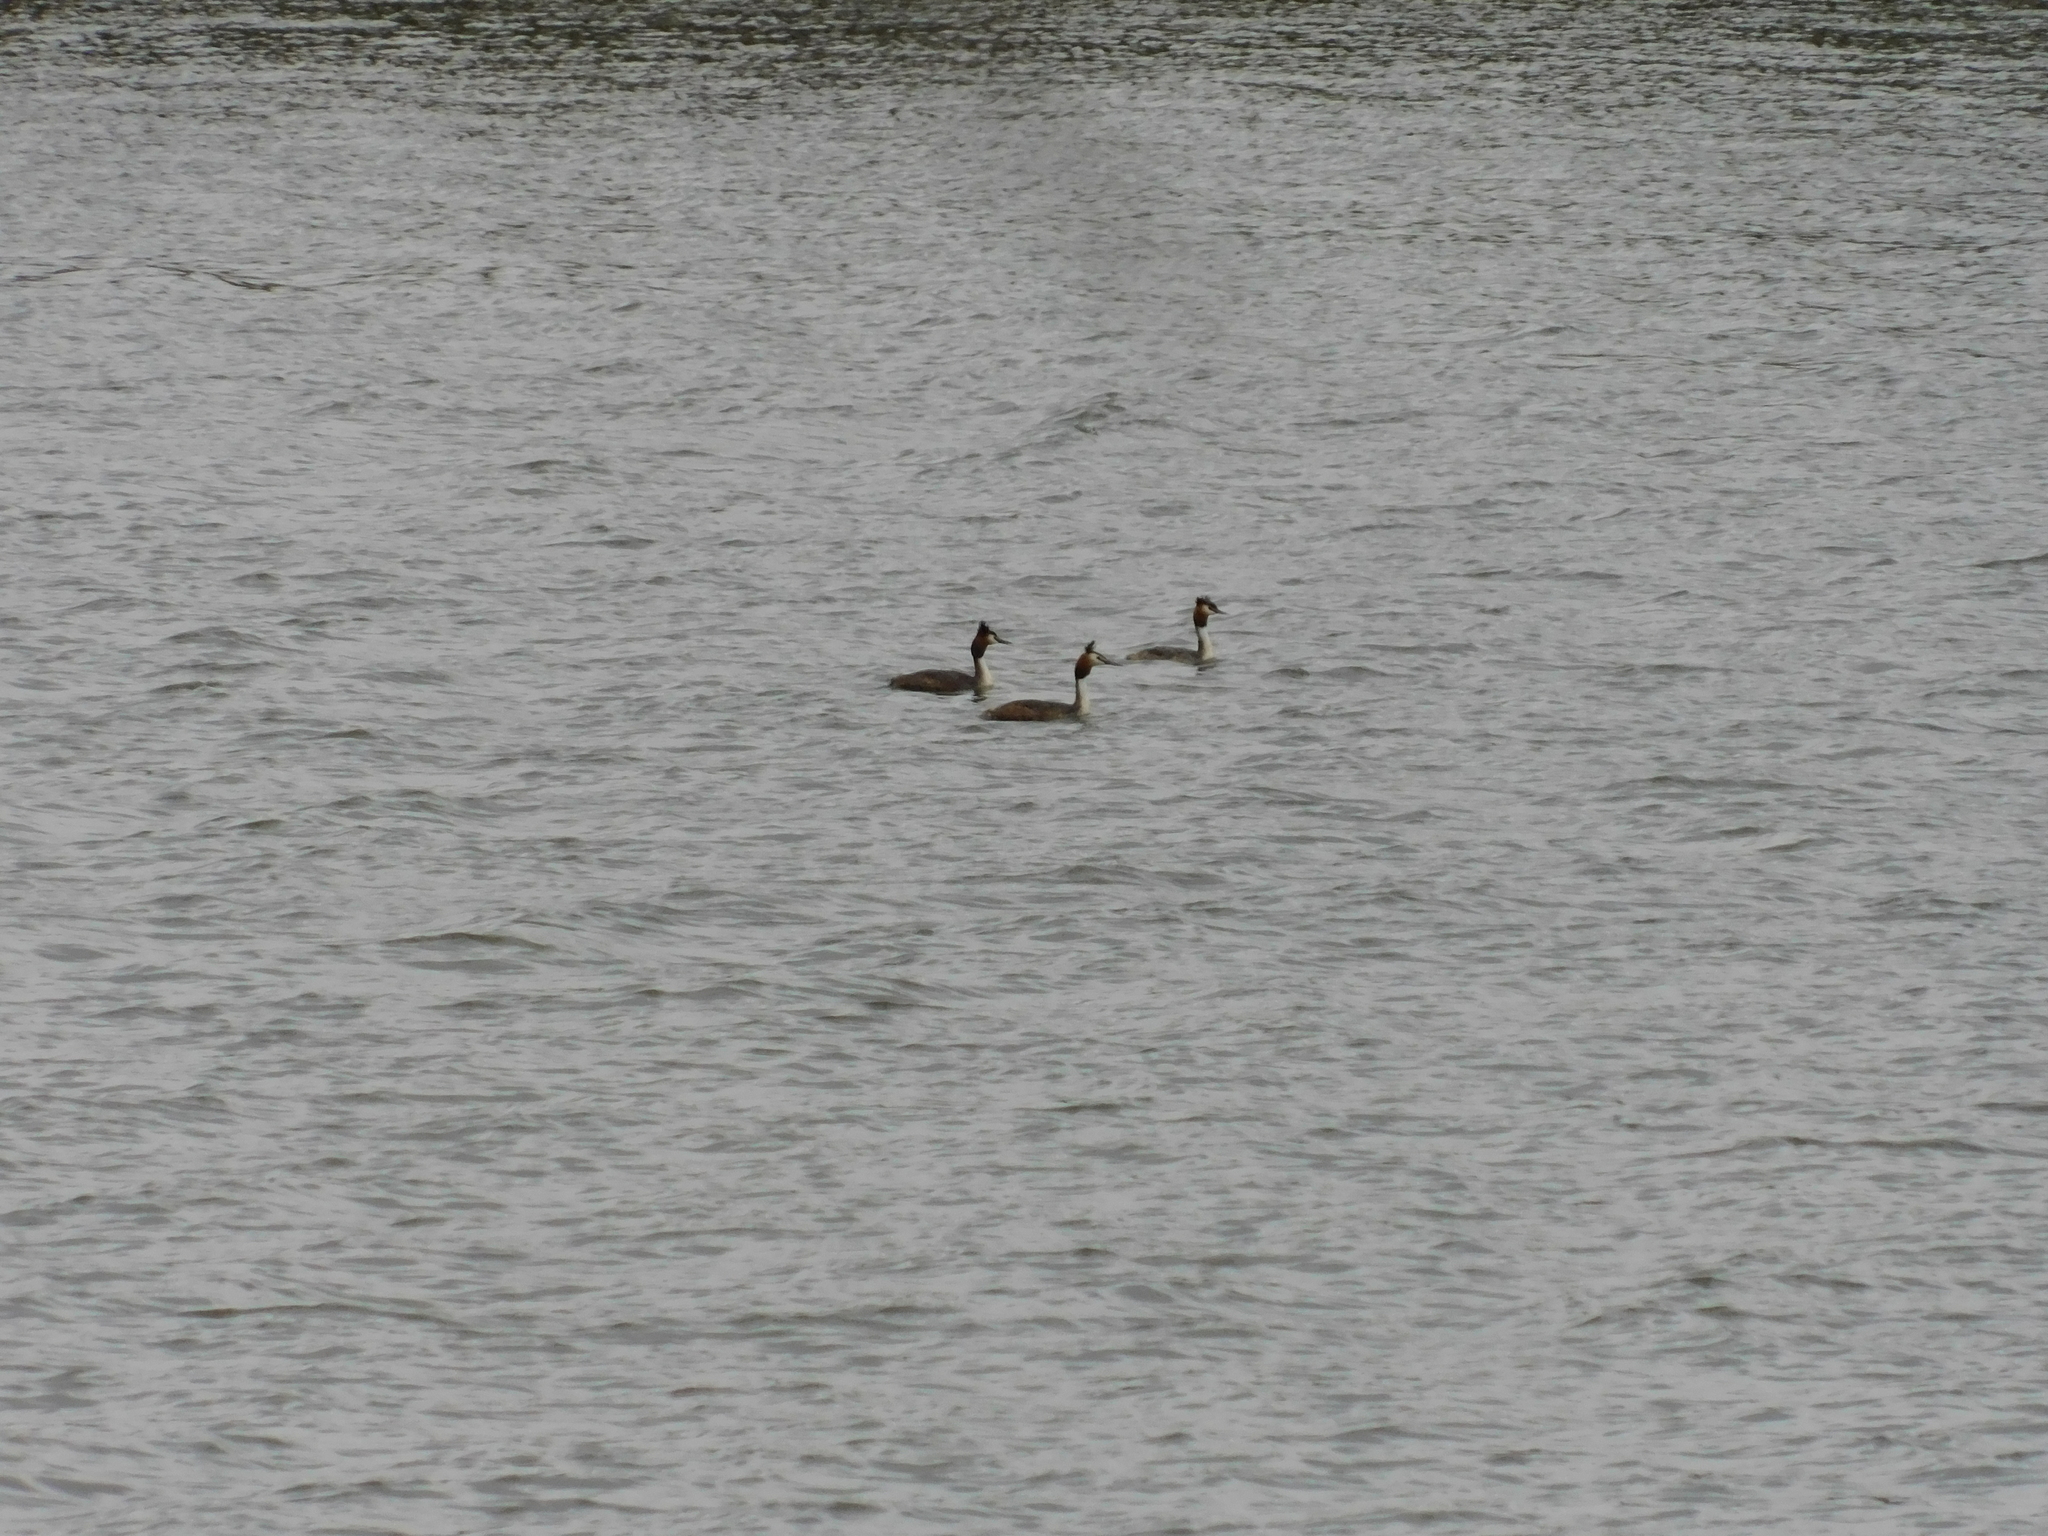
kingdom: Animalia
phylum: Chordata
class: Aves
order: Podicipediformes
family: Podicipedidae
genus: Podiceps
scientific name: Podiceps cristatus
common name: Great crested grebe
